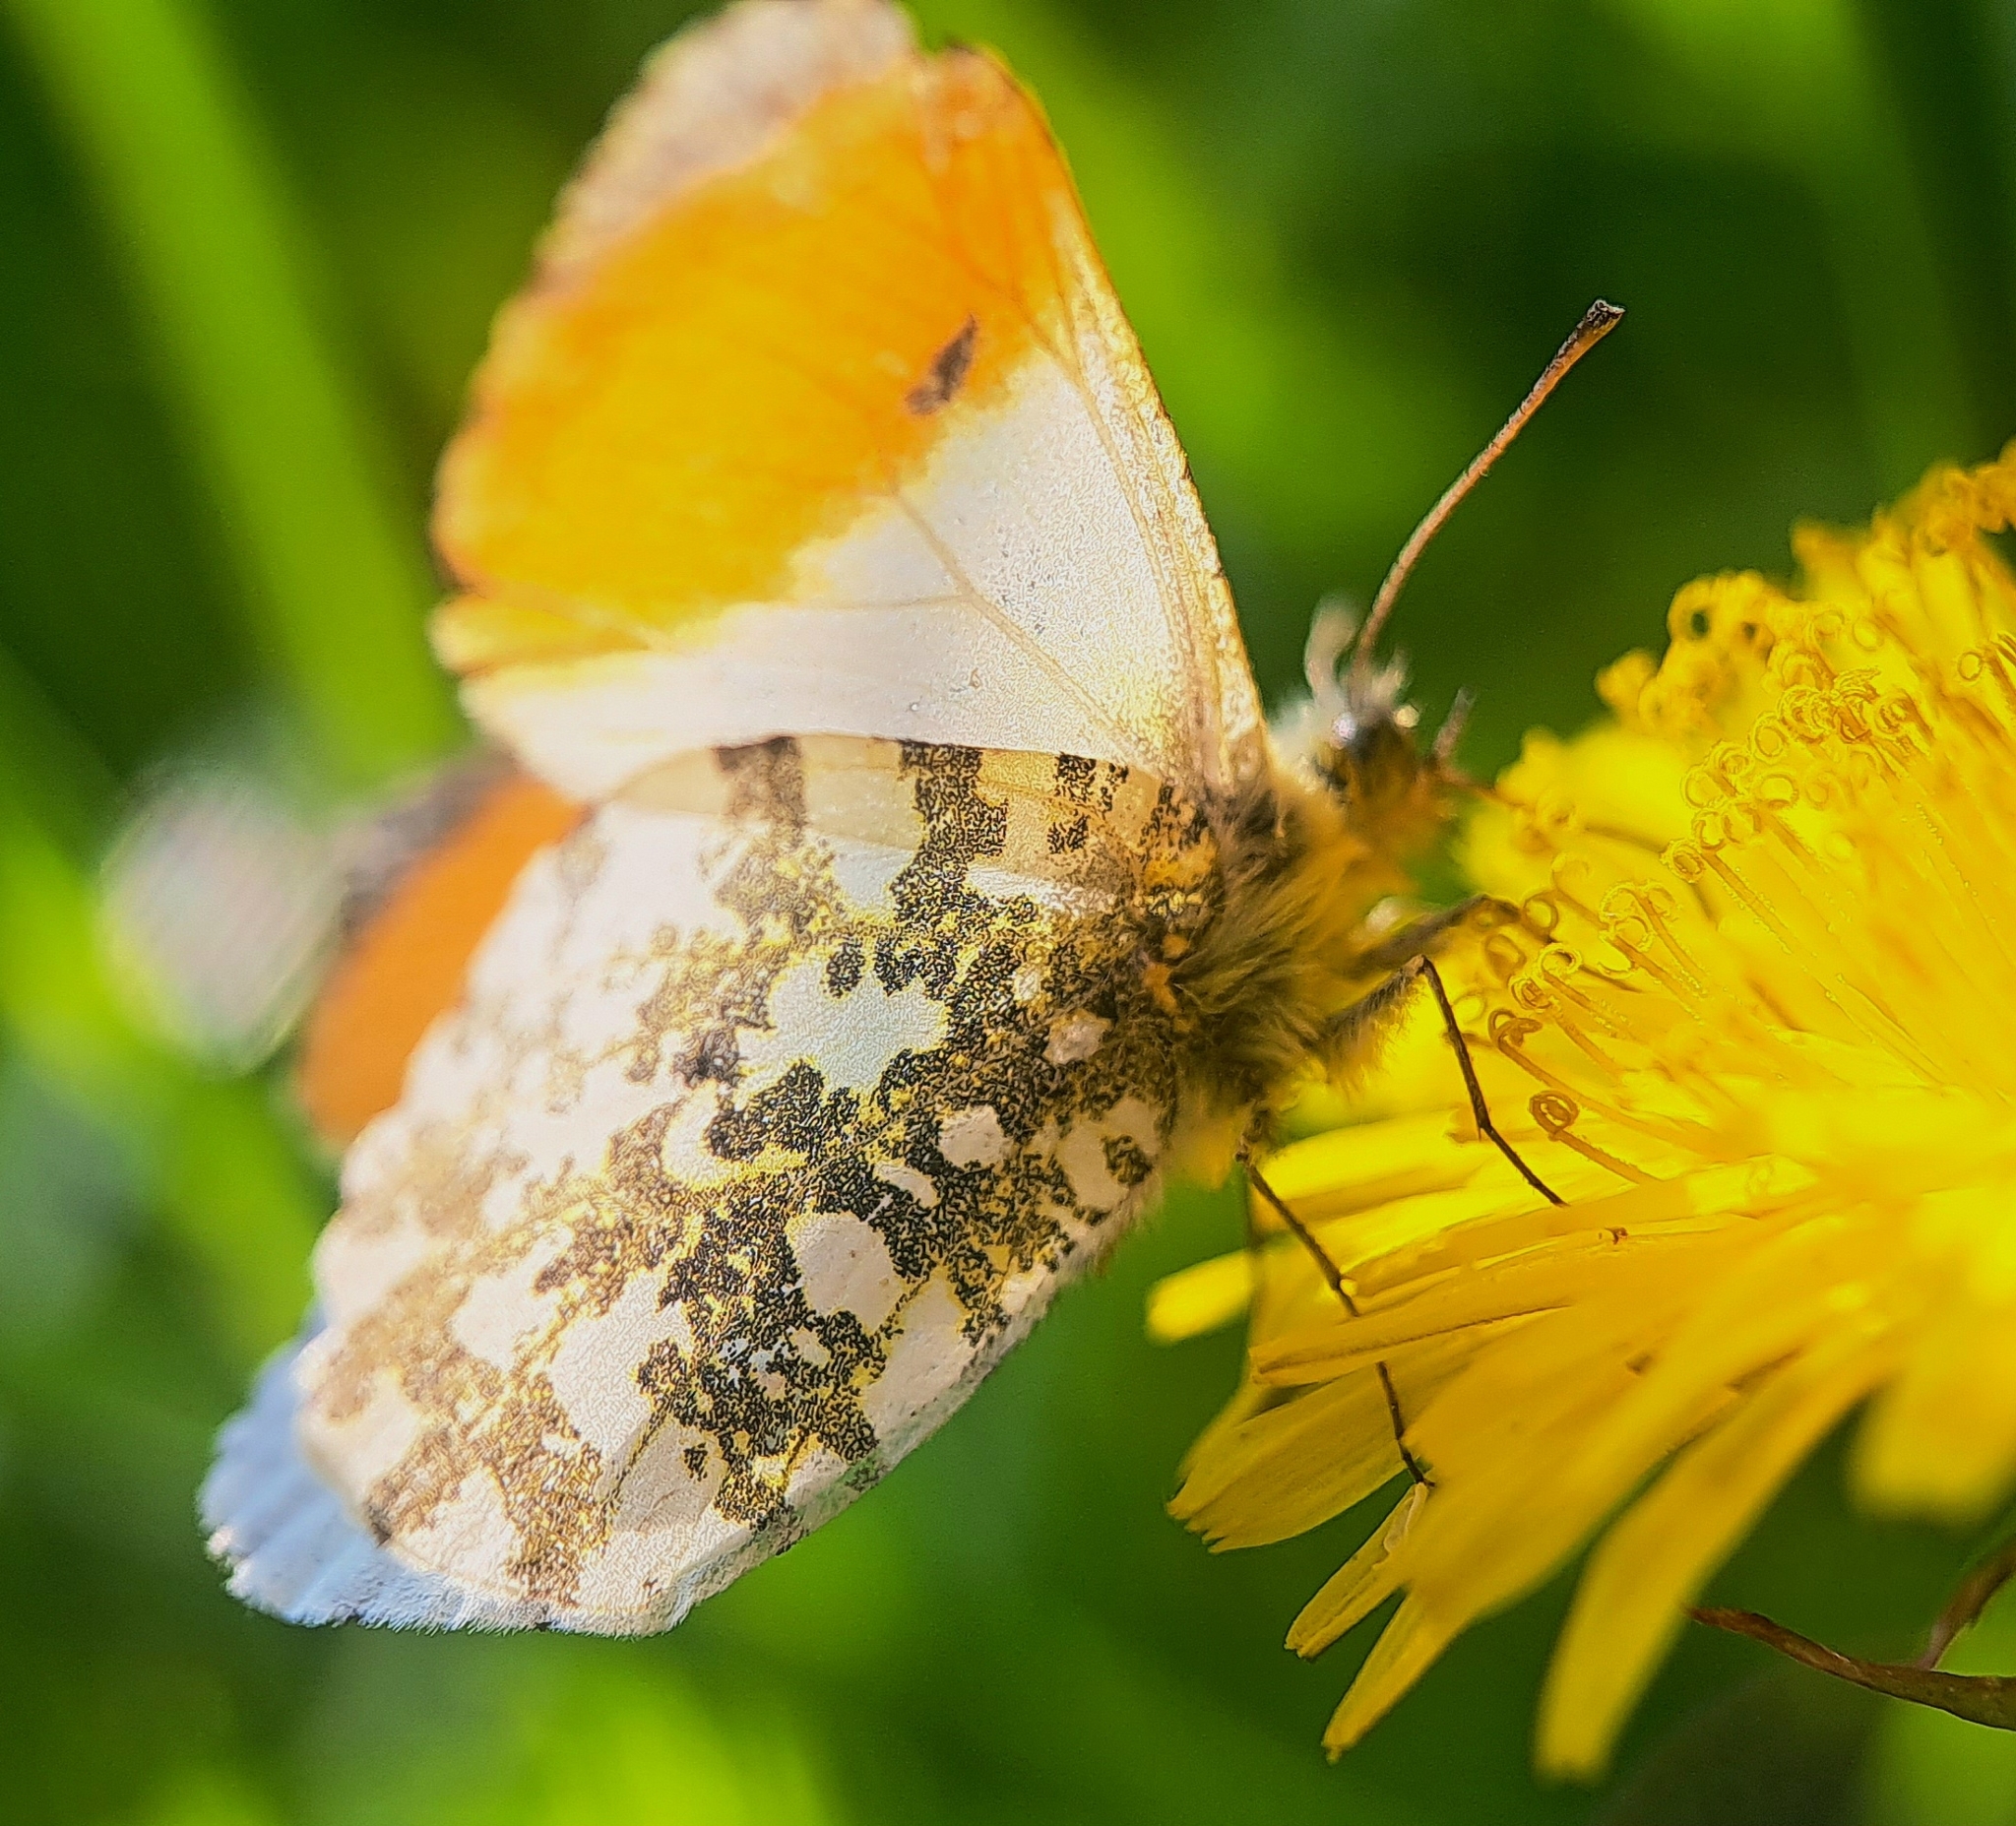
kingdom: Animalia
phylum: Arthropoda
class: Insecta
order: Lepidoptera
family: Pieridae
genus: Anthocharis
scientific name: Anthocharis cardamines
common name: Orange-tip
